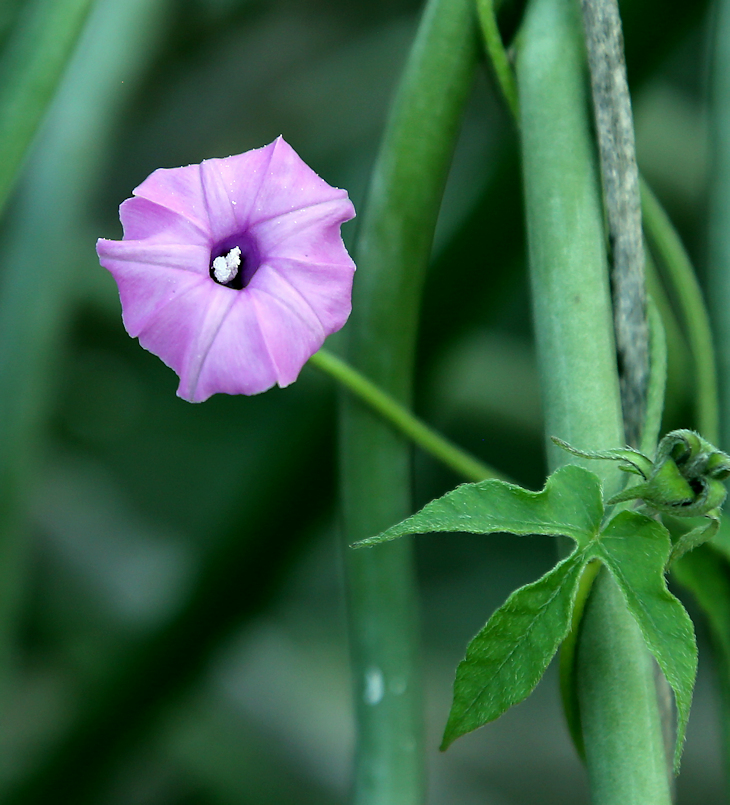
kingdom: Plantae
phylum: Tracheophyta
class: Magnoliopsida
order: Solanales
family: Convolvulaceae
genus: Ipomoea
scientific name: Ipomoea magnusiana
